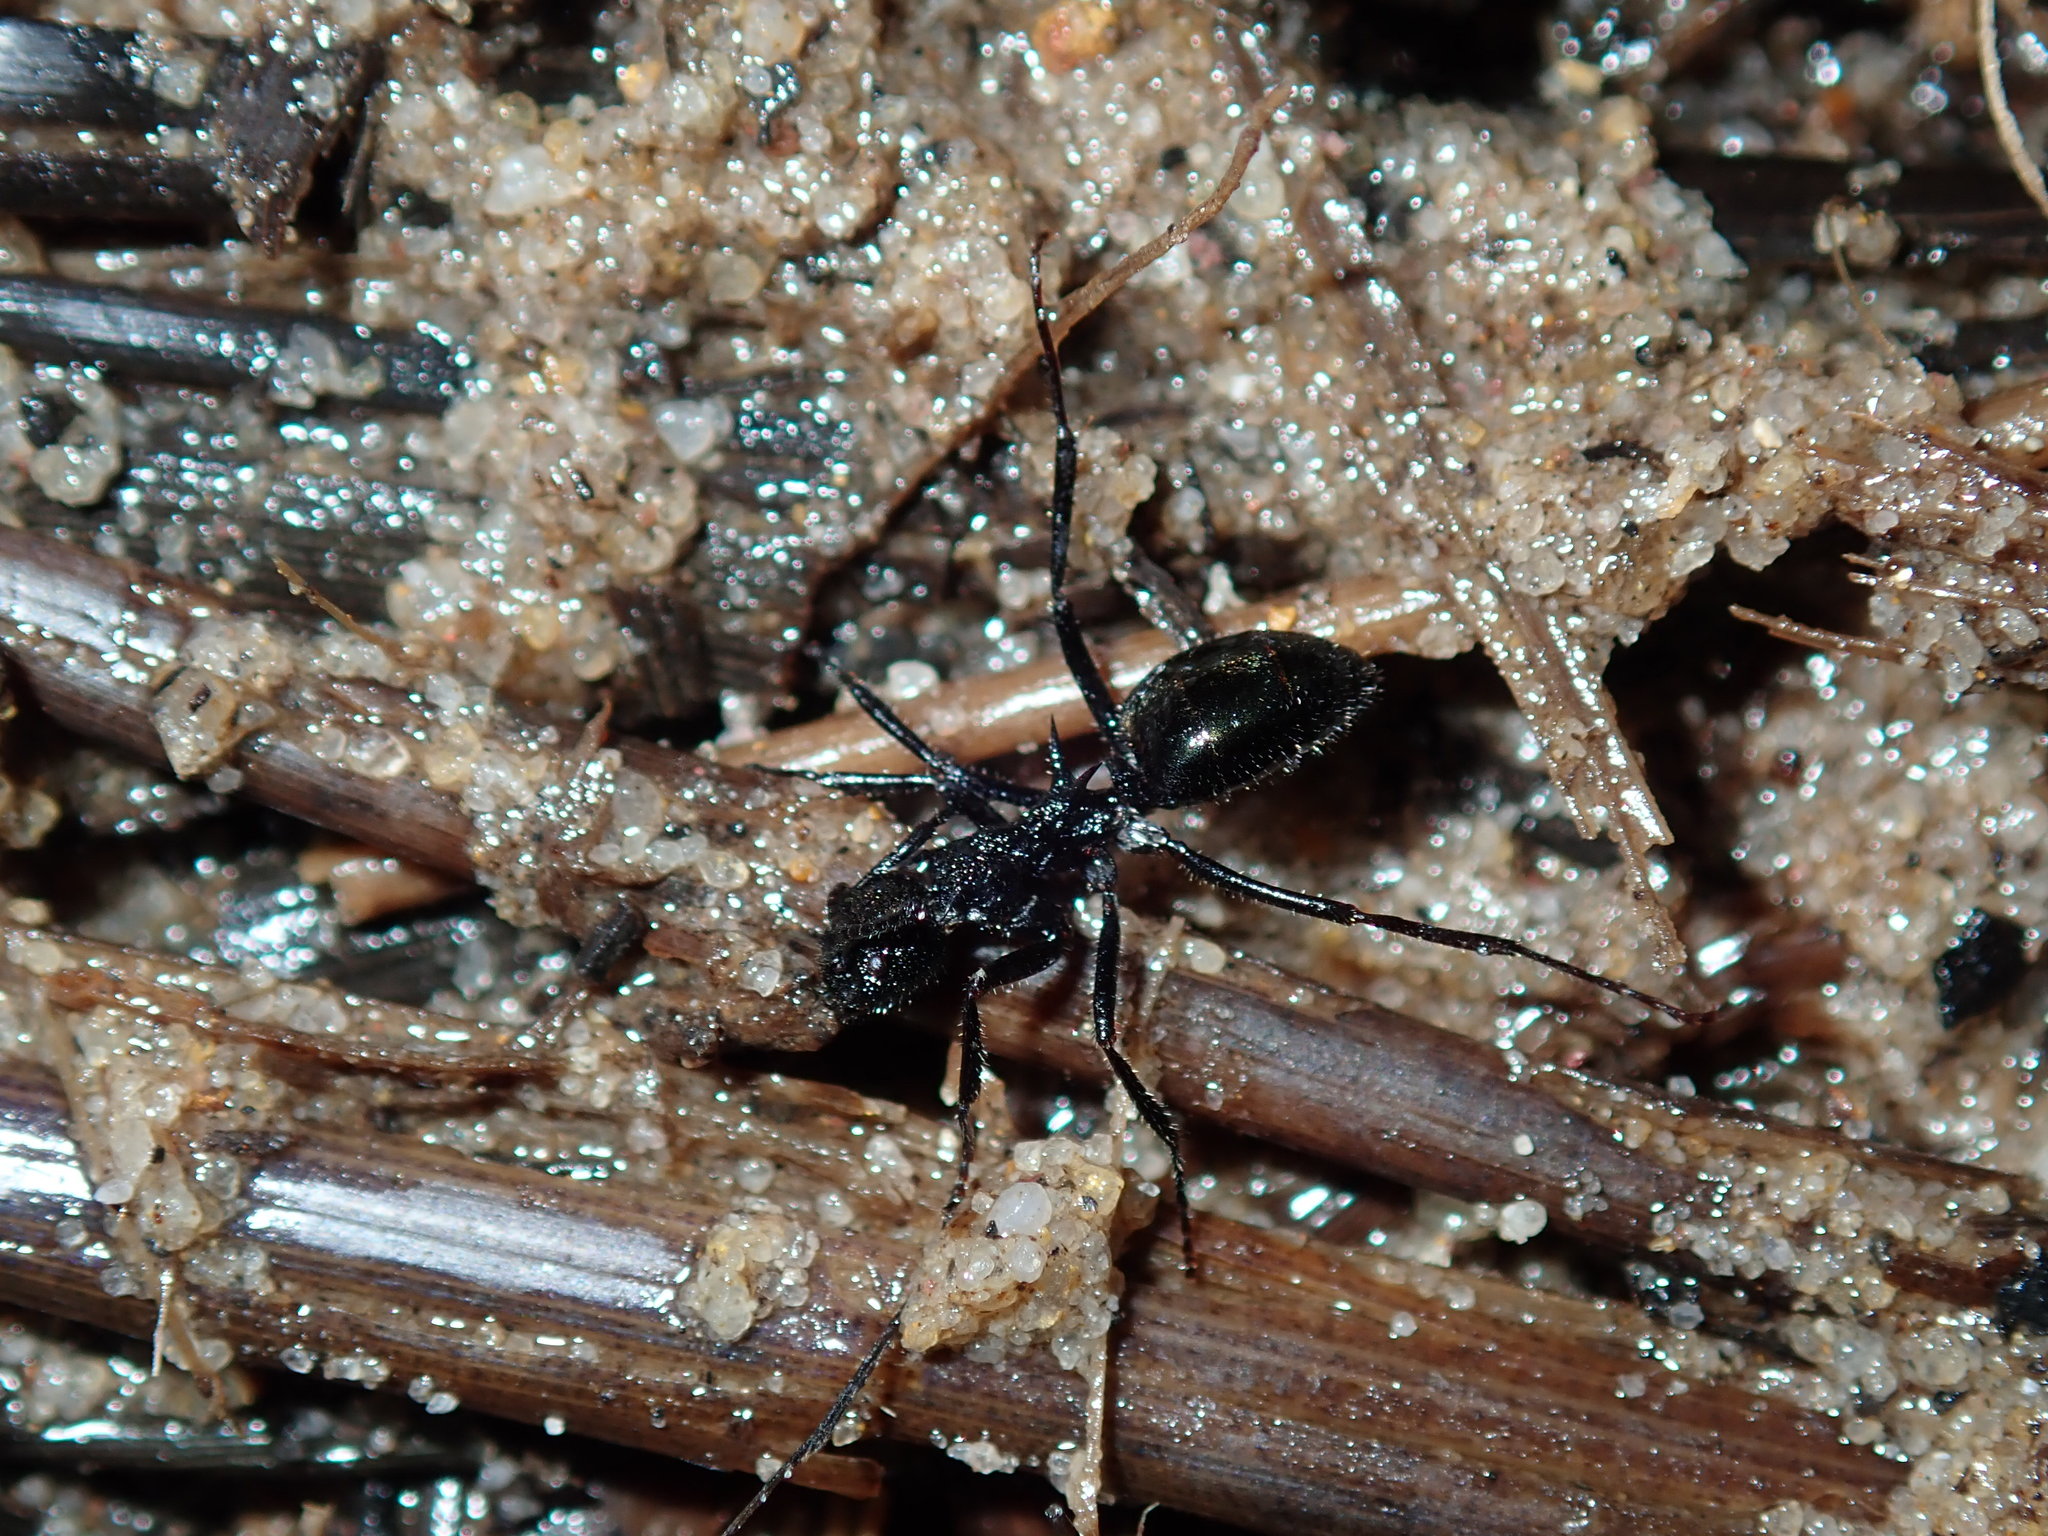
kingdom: Animalia
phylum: Arthropoda
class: Insecta
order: Hymenoptera
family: Formicidae
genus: Dolichoderus
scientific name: Dolichoderus clarki
